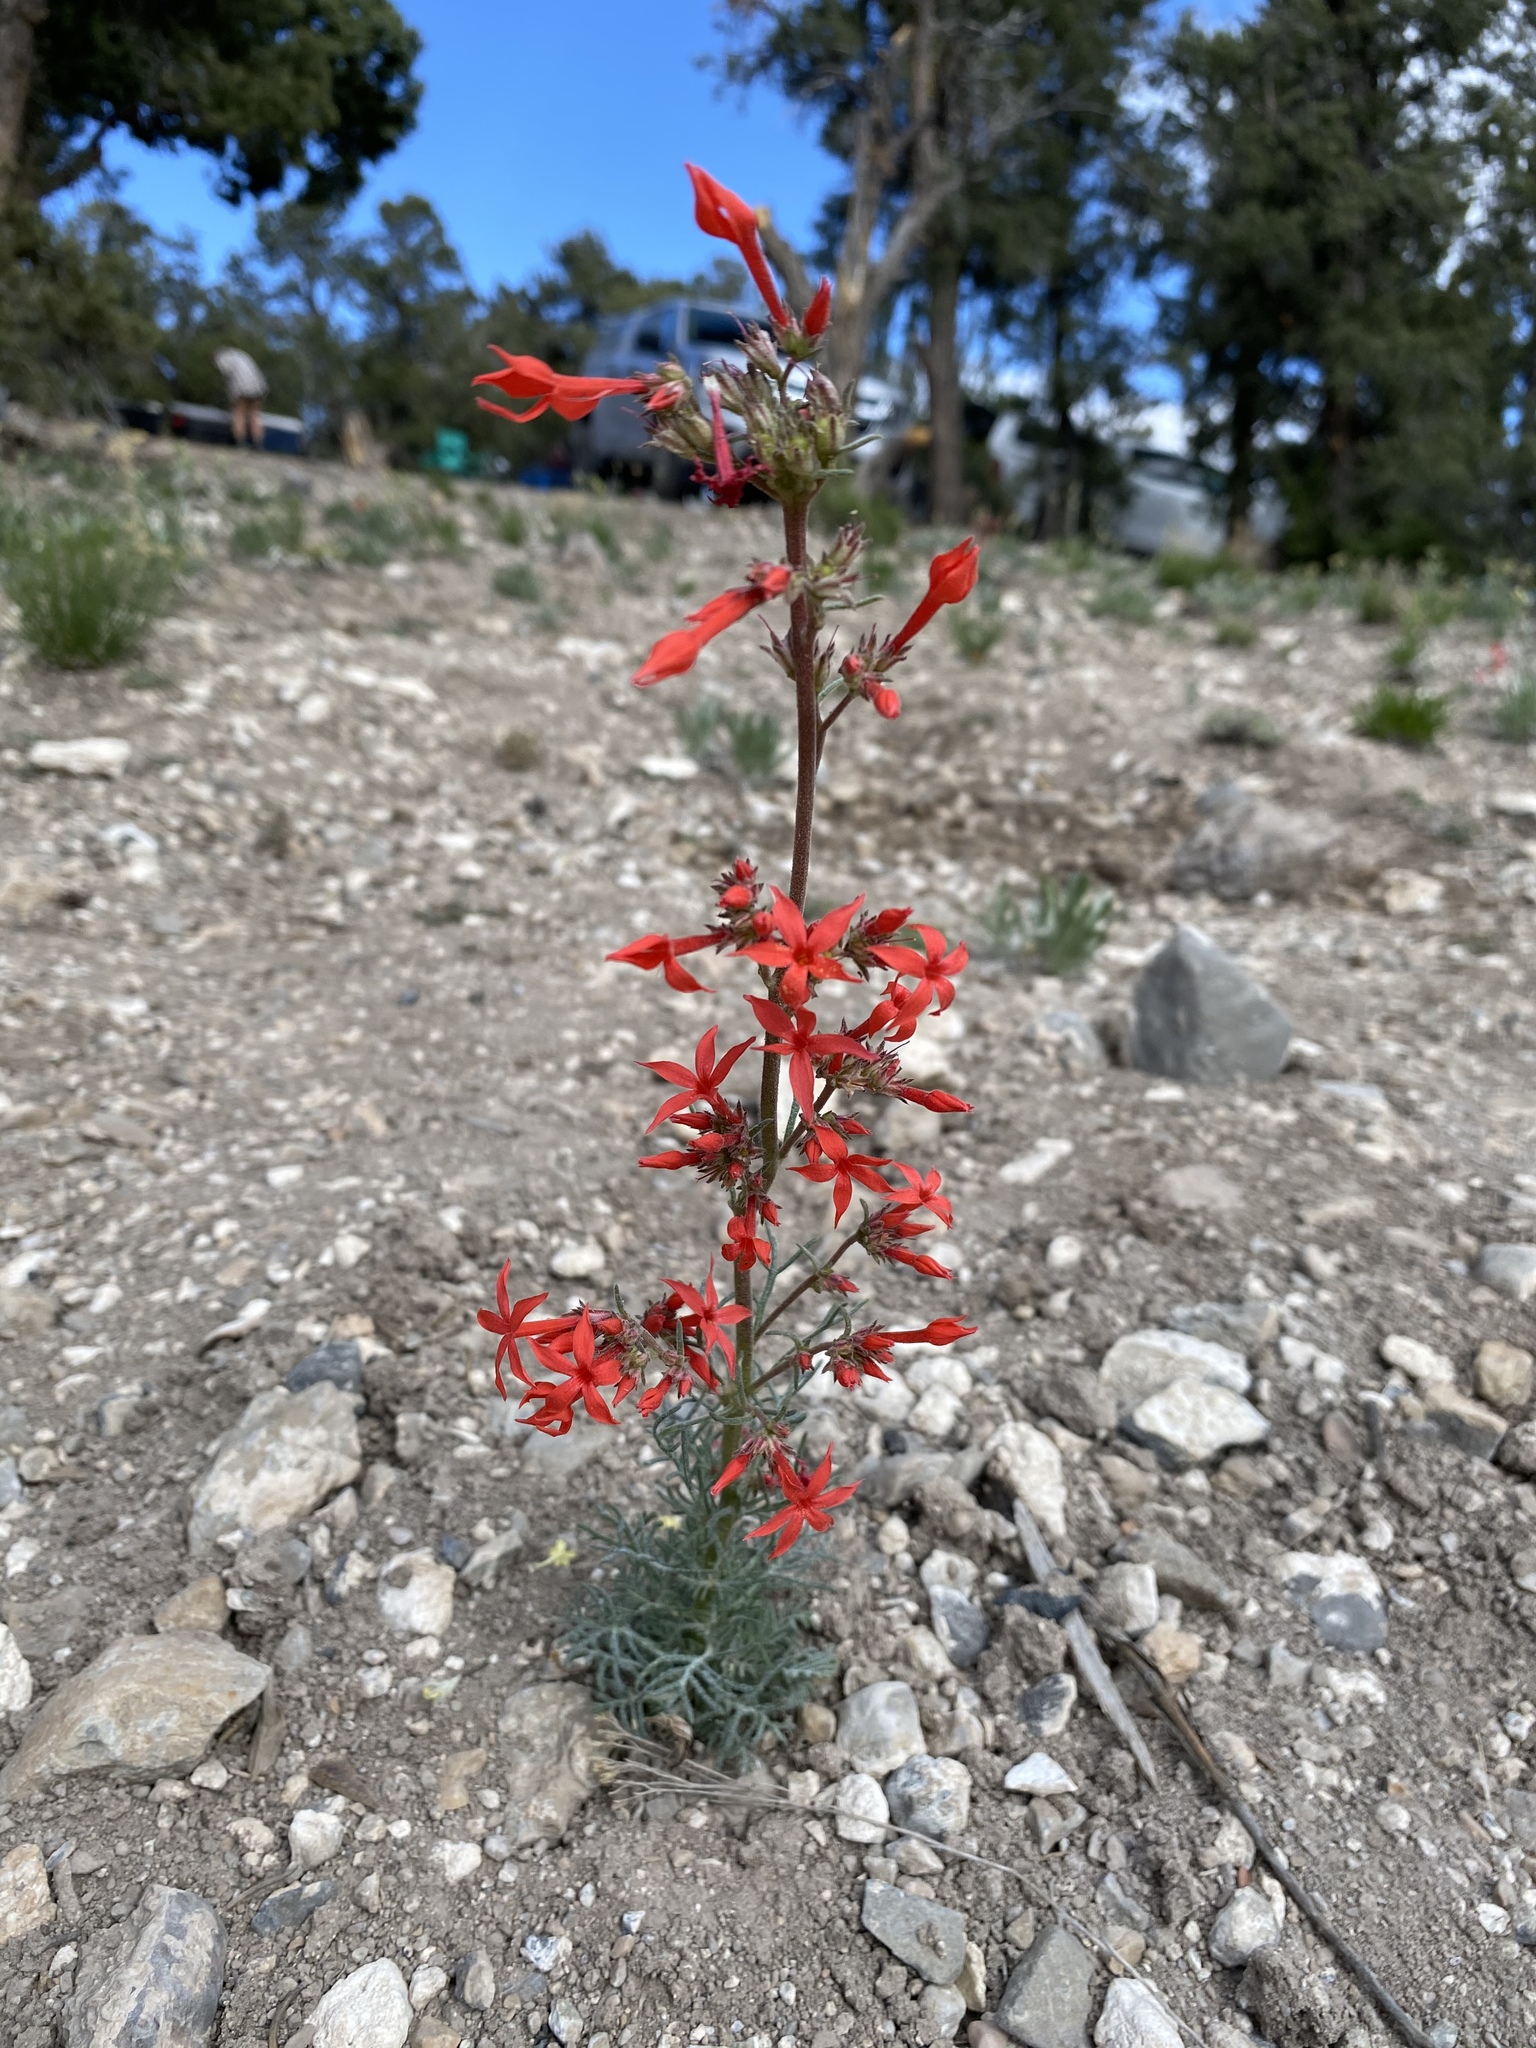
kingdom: Plantae
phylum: Tracheophyta
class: Magnoliopsida
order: Ericales
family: Polemoniaceae
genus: Ipomopsis
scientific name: Ipomopsis arizonica
